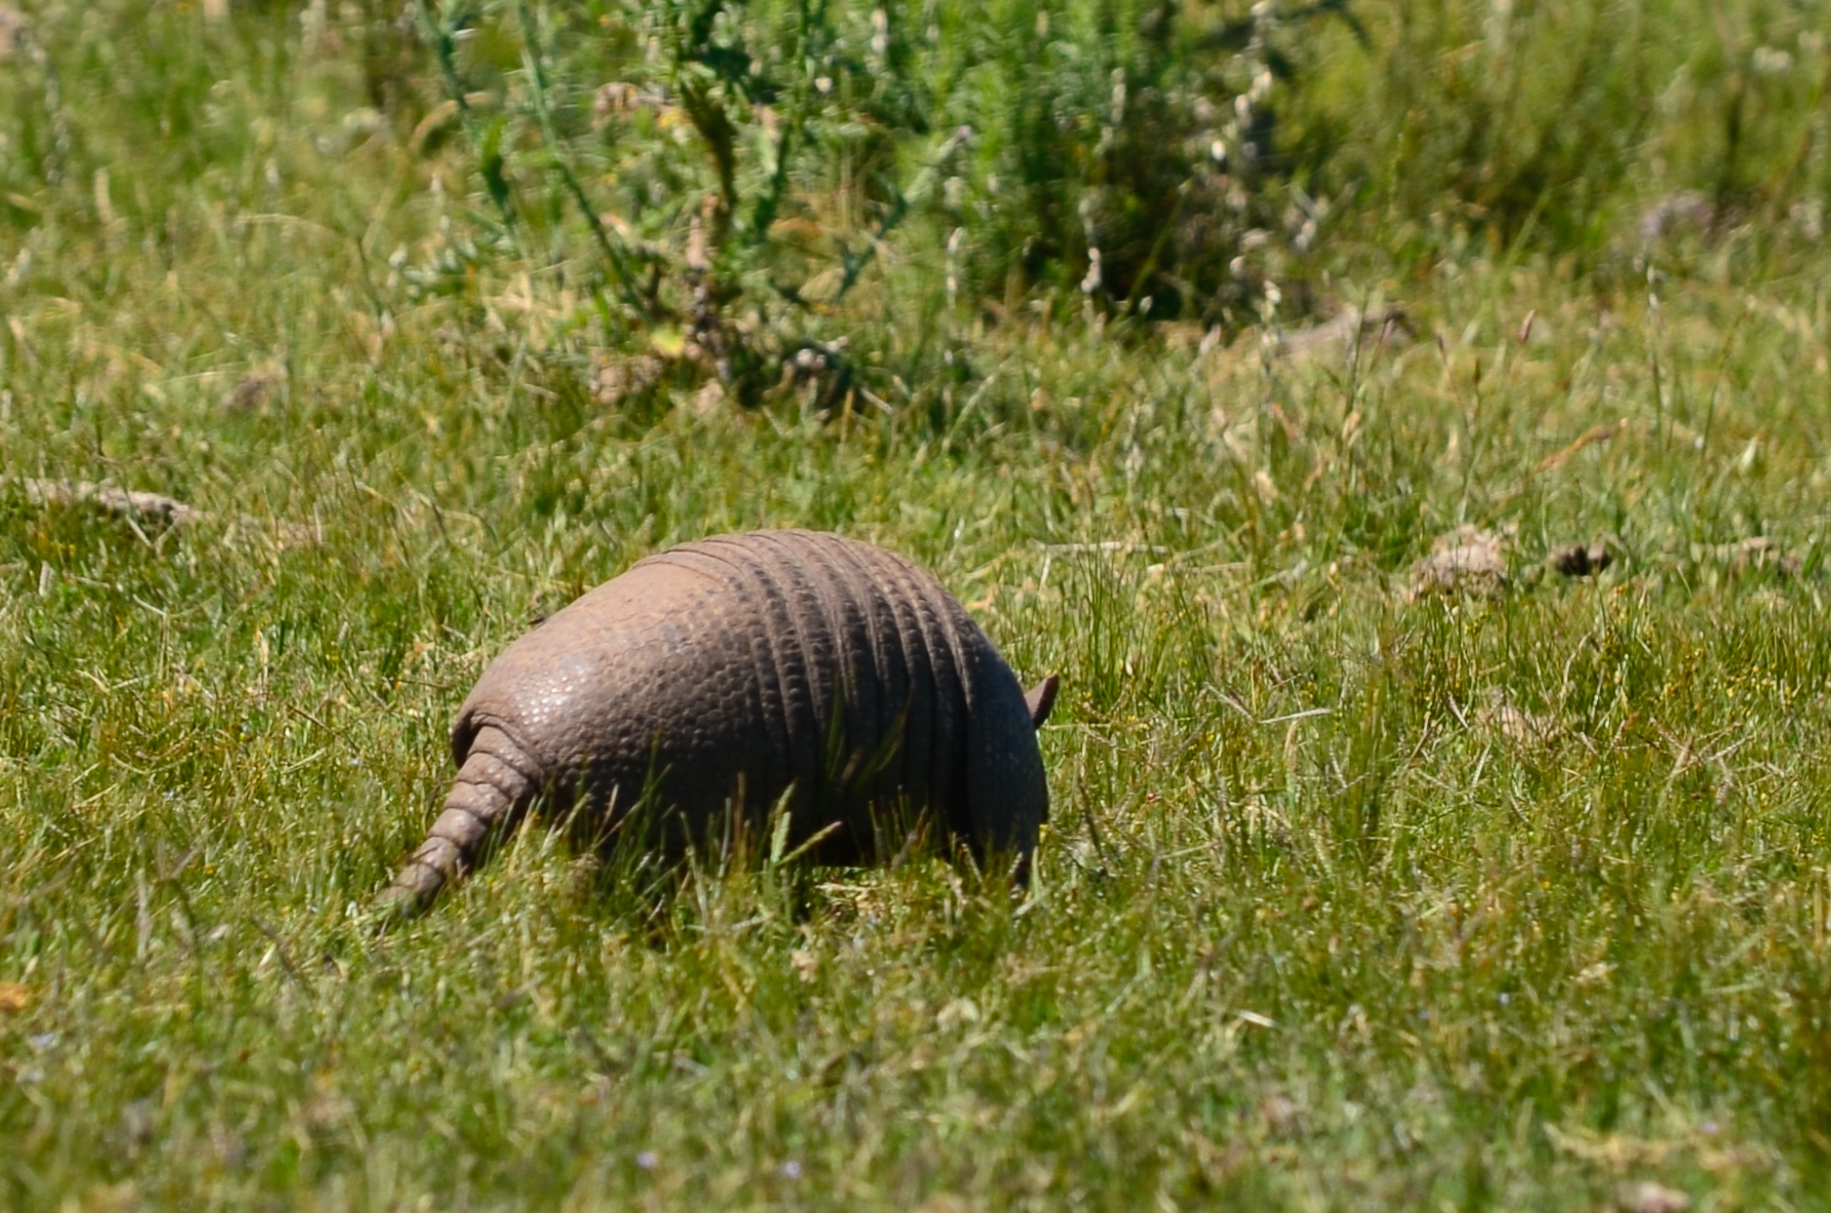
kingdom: Animalia
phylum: Chordata
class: Mammalia
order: Cingulata
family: Dasypodidae
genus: Dasypus
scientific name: Dasypus septemcinctus
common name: Seven-banded armadillo
